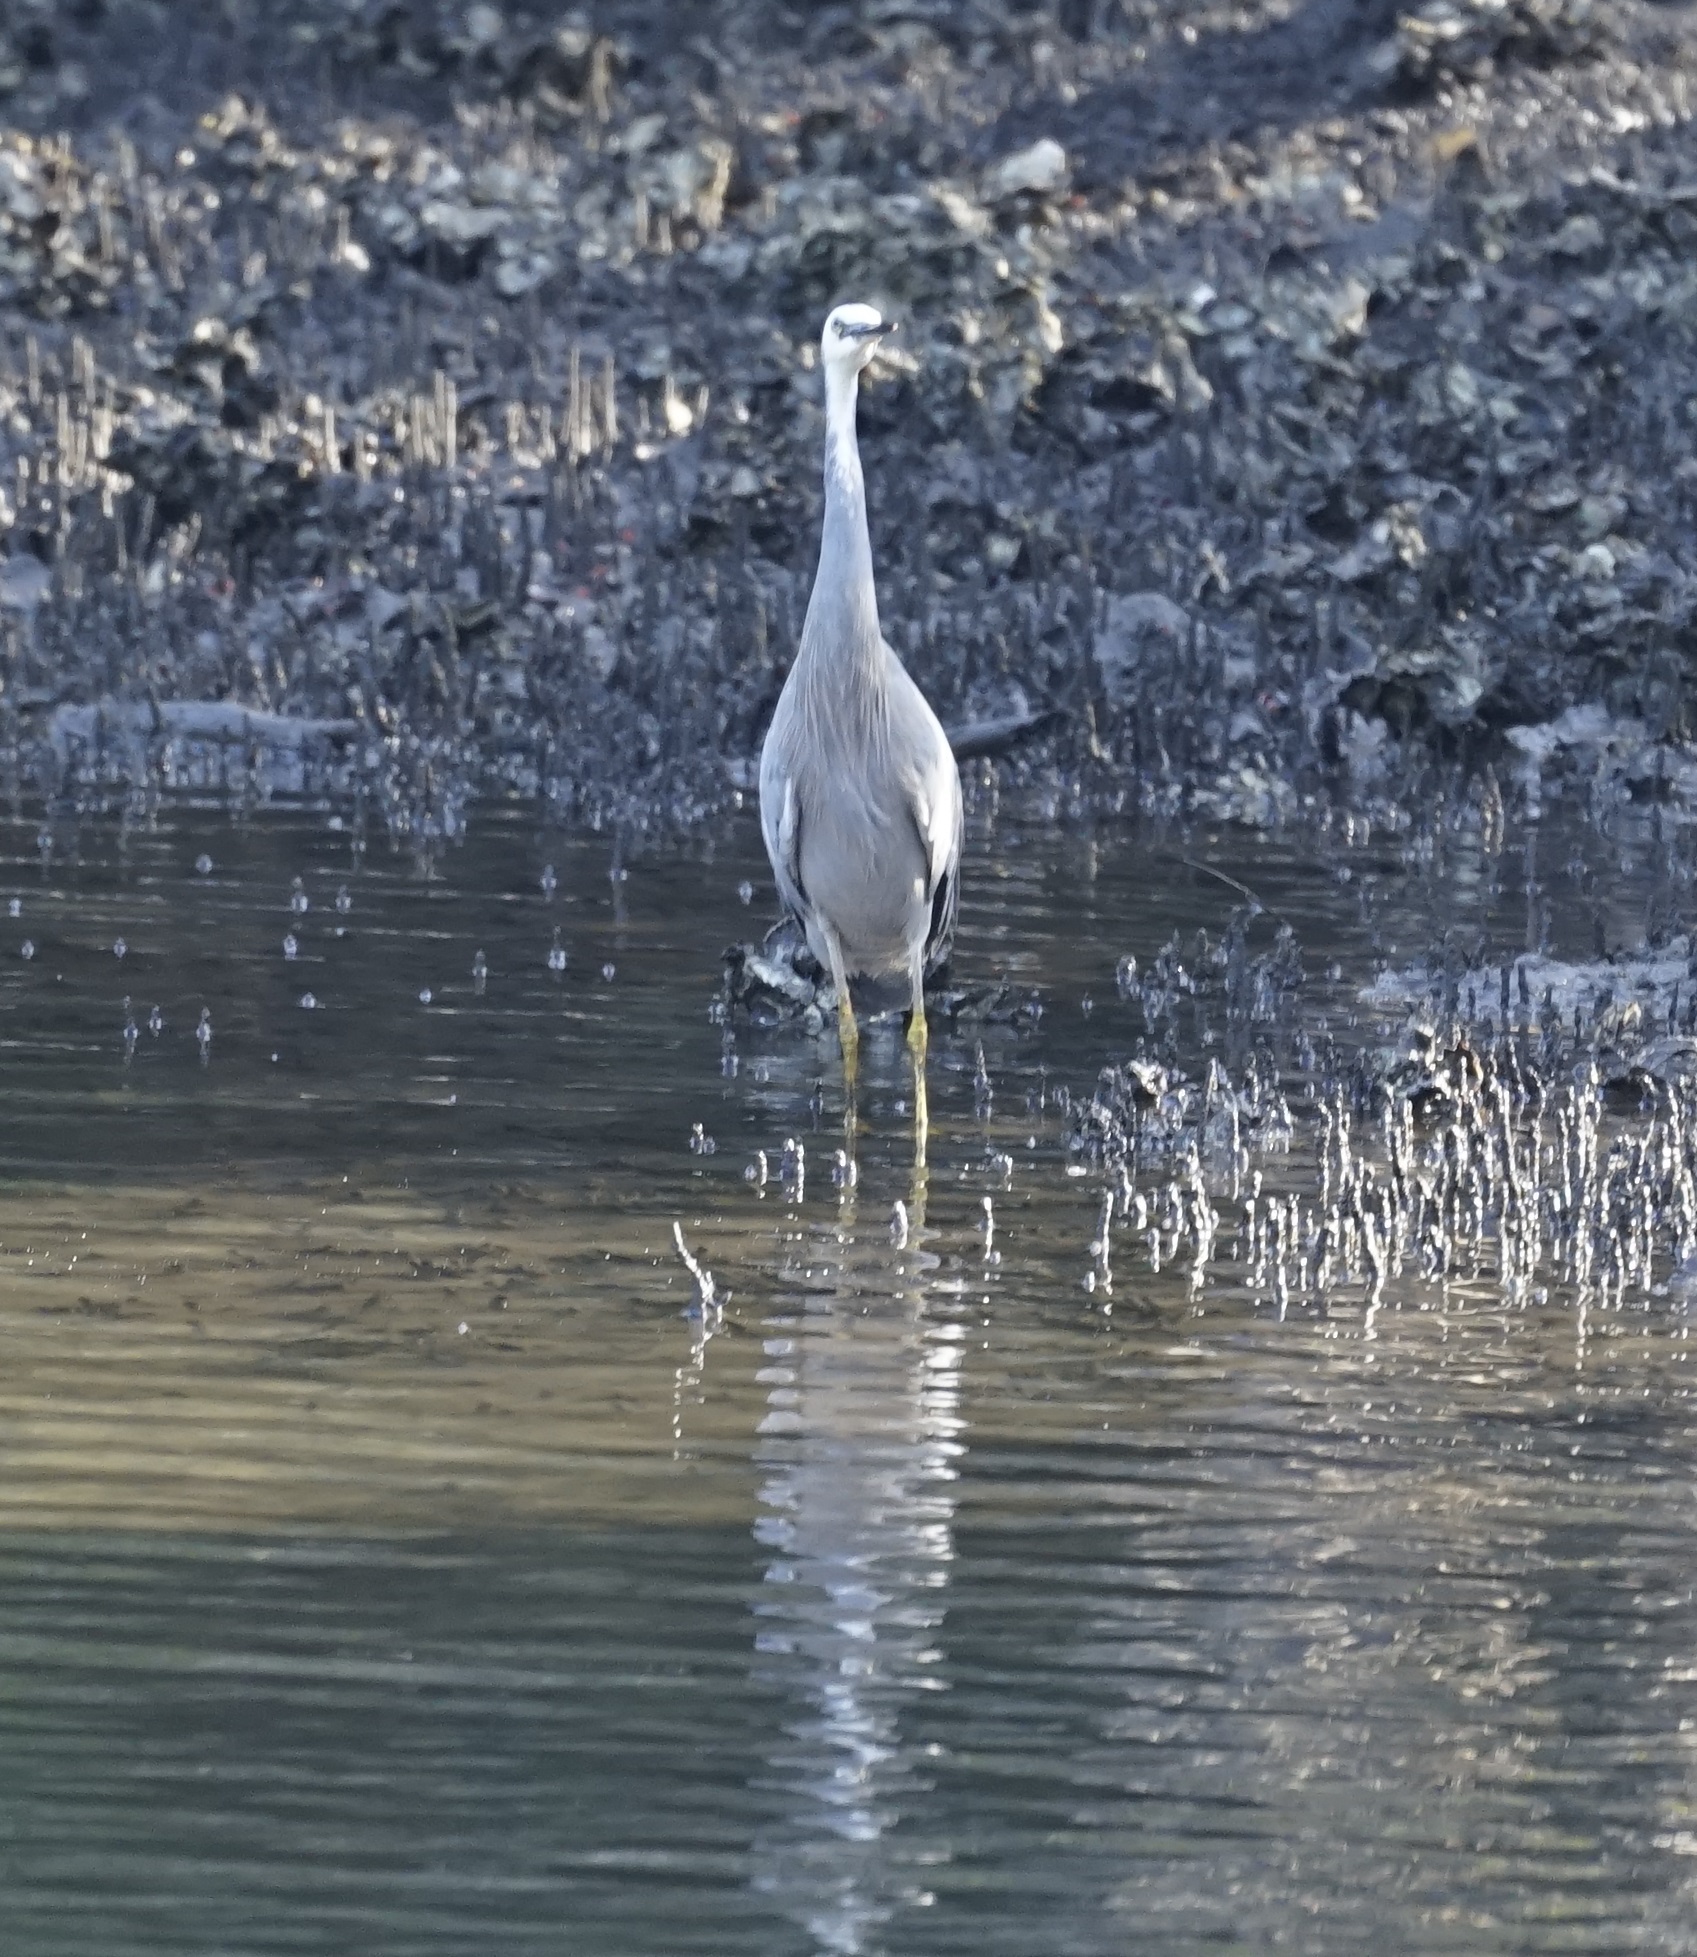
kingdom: Animalia
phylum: Chordata
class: Aves
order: Pelecaniformes
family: Ardeidae
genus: Egretta
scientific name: Egretta novaehollandiae
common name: White-faced heron
